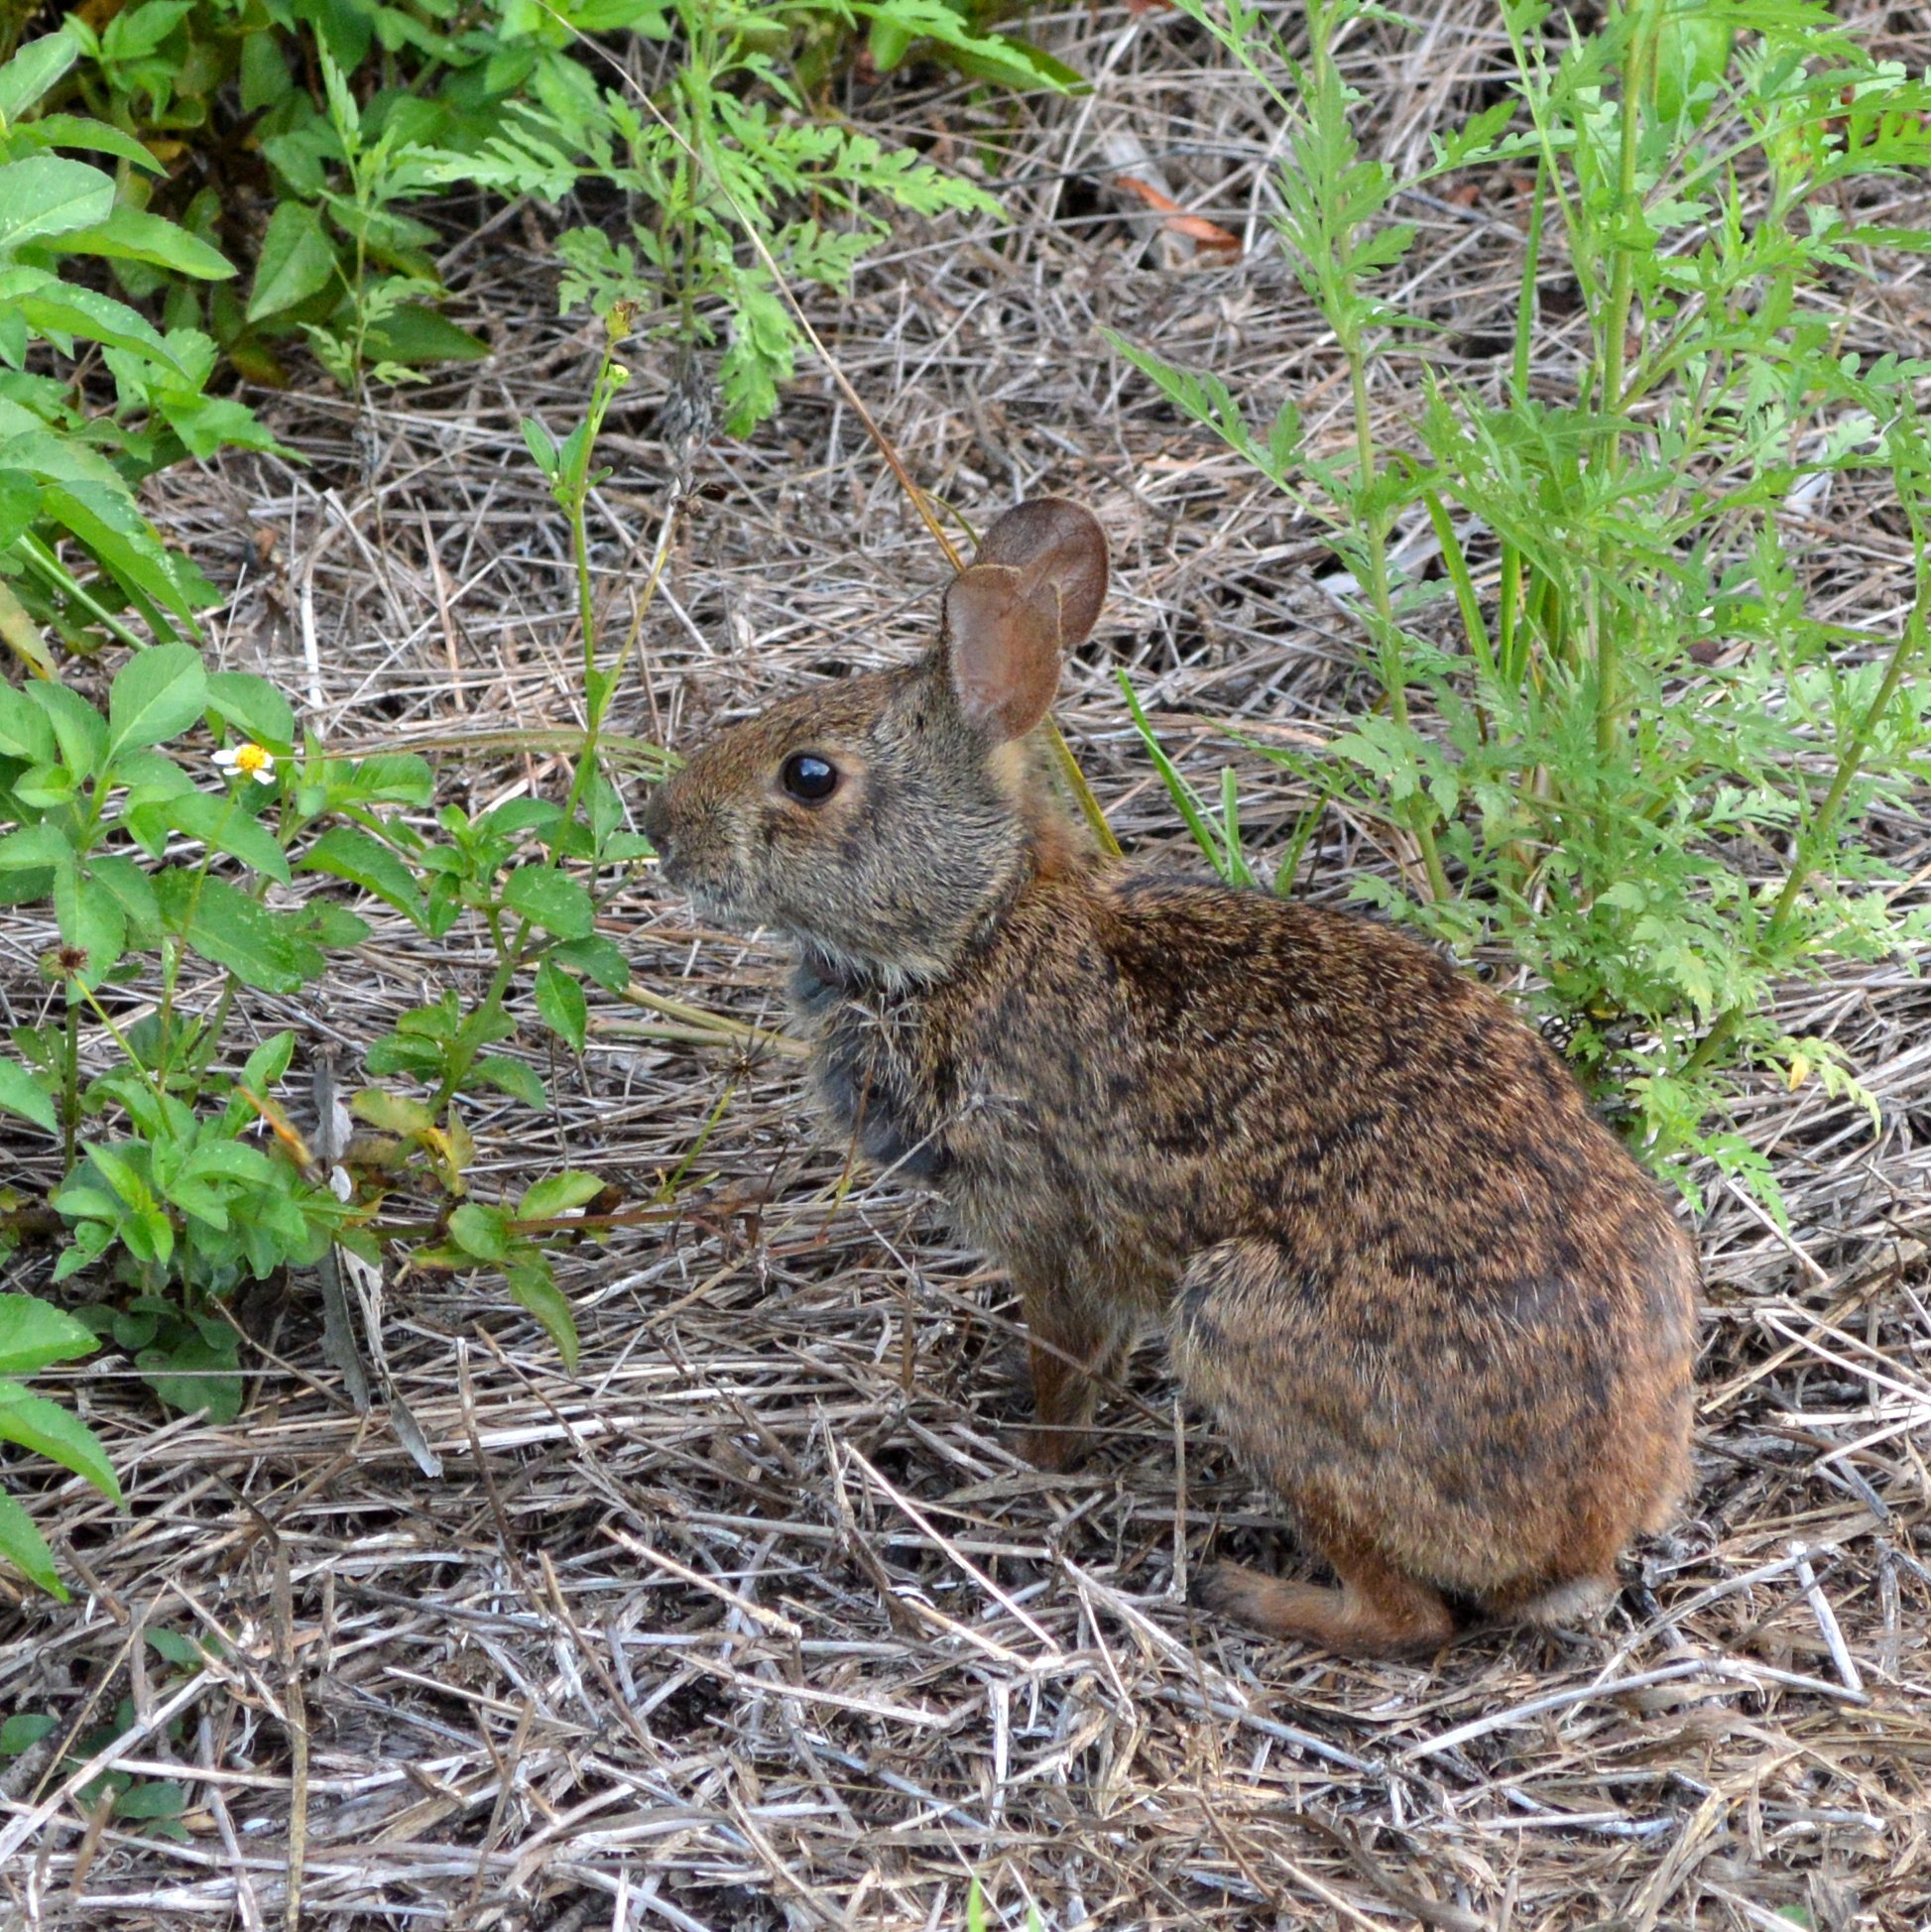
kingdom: Animalia
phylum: Chordata
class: Mammalia
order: Lagomorpha
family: Leporidae
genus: Sylvilagus
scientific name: Sylvilagus palustris
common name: Marsh rabbit
